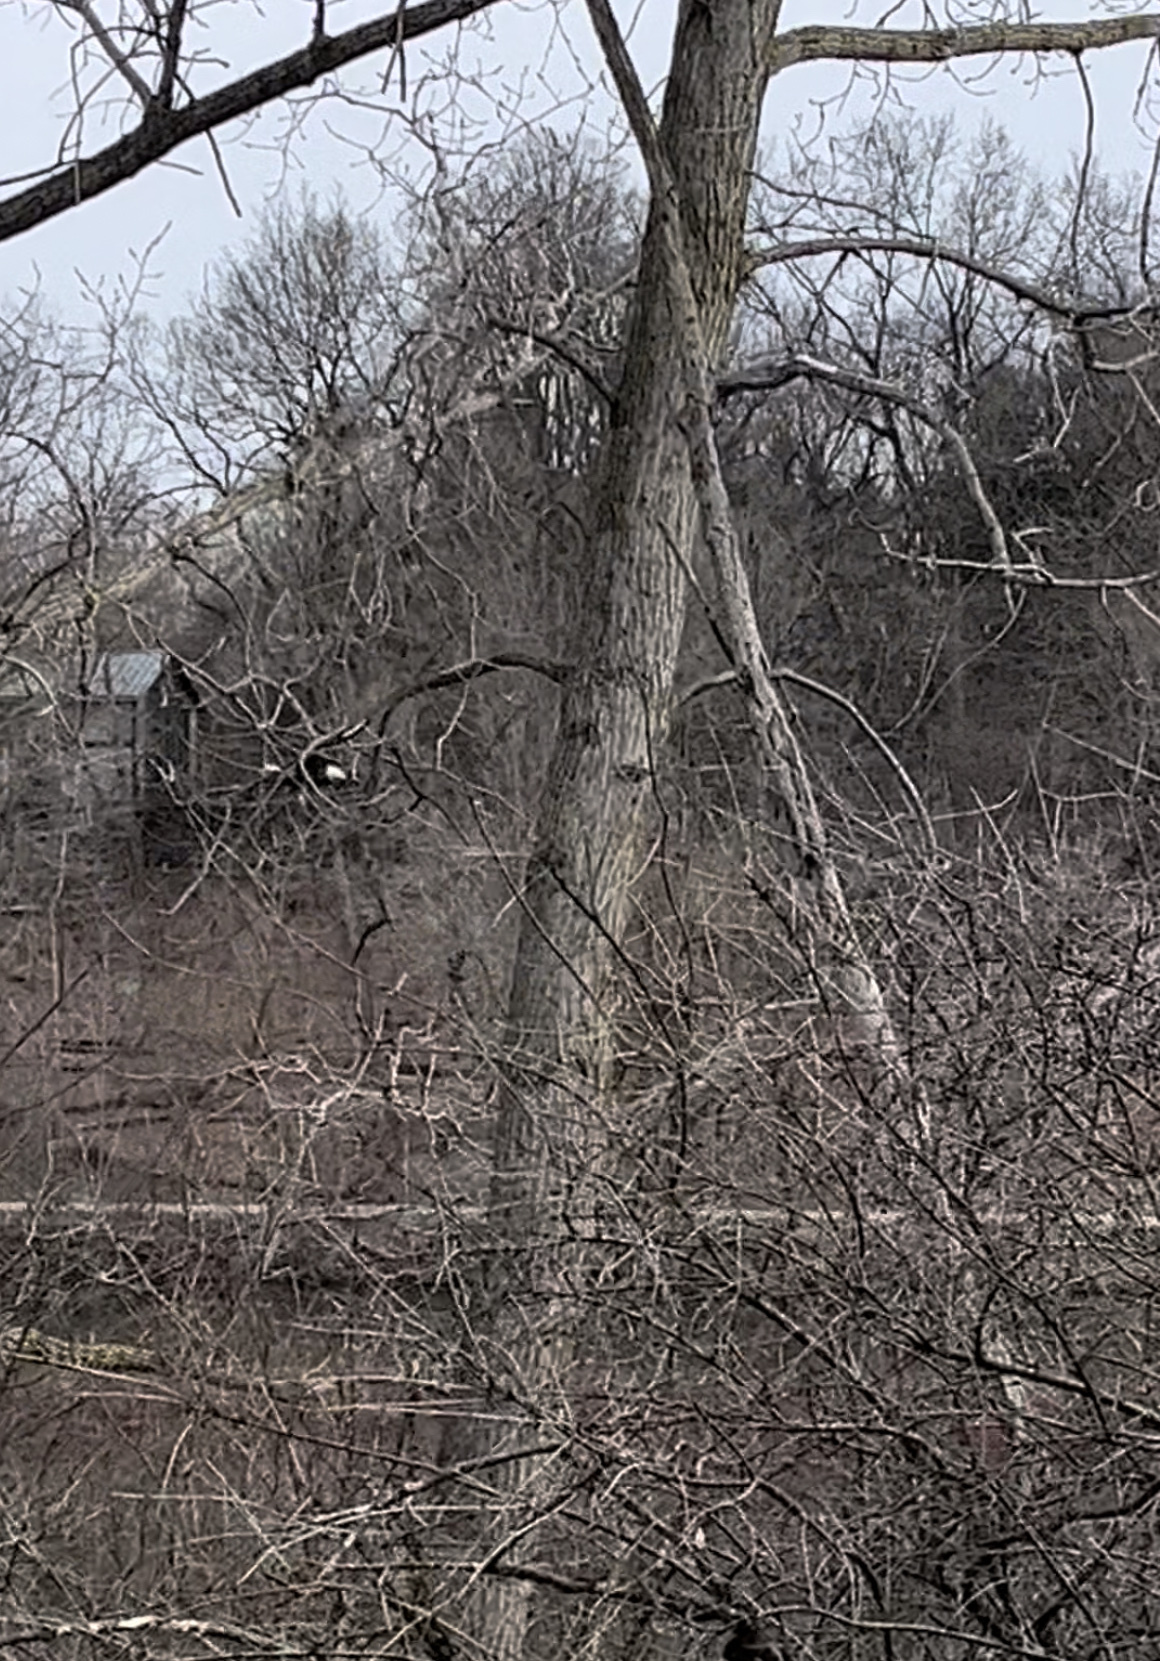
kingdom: Animalia
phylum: Chordata
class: Aves
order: Accipitriformes
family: Accipitridae
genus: Haliaeetus
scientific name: Haliaeetus leucocephalus
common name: Bald eagle
